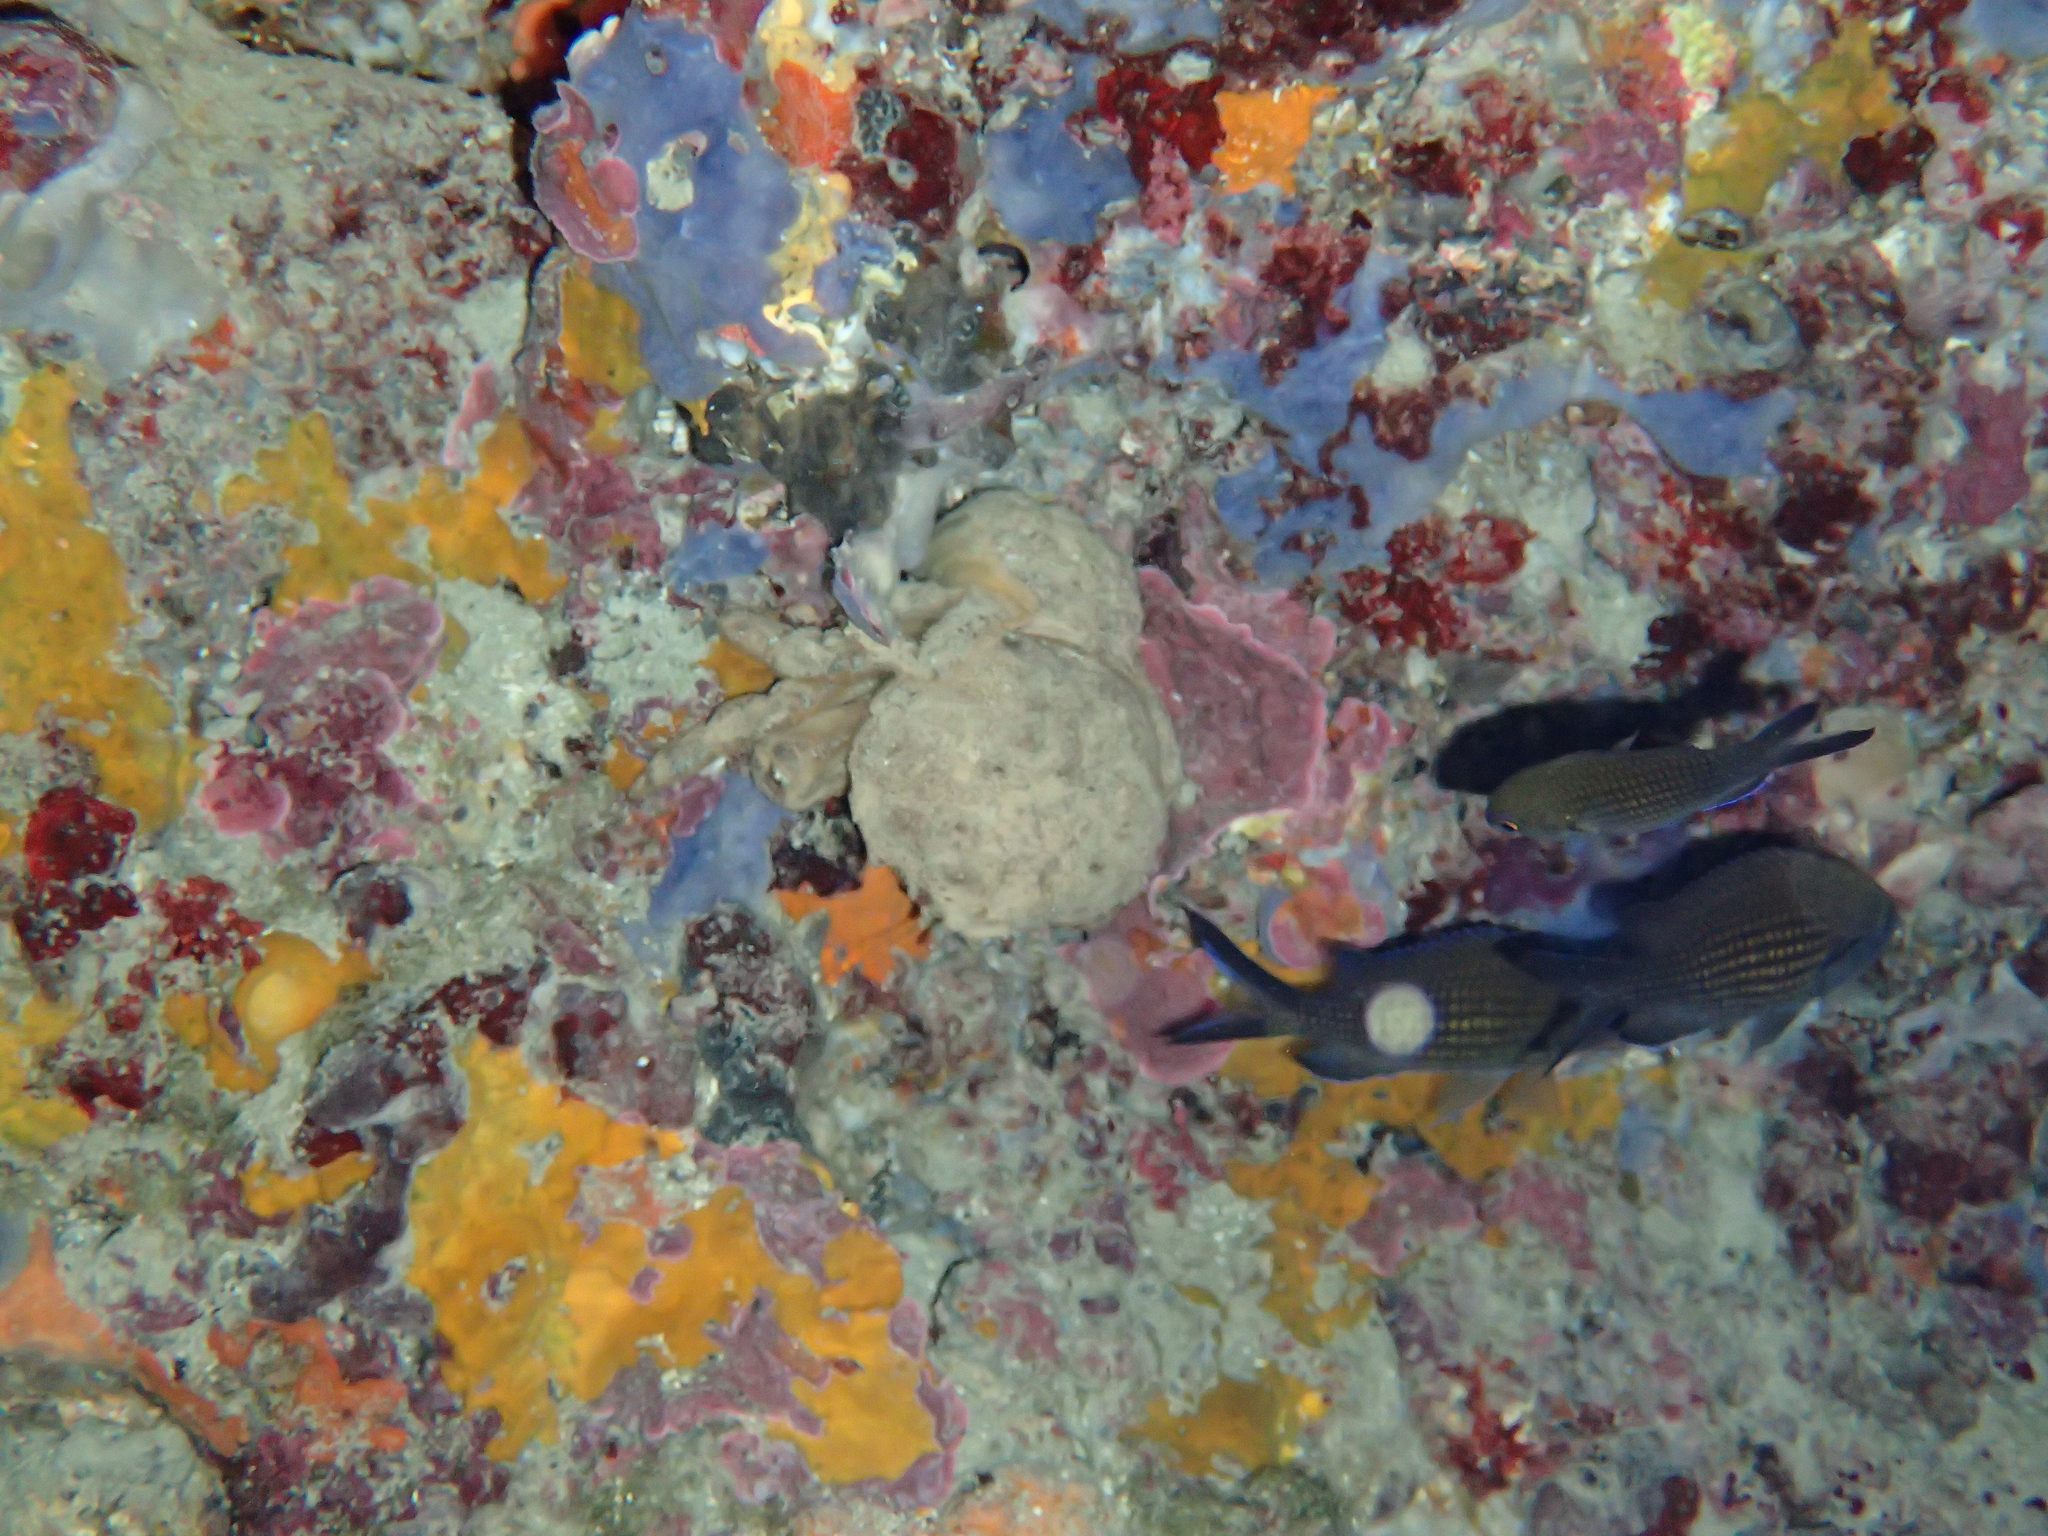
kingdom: Animalia
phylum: Arthropoda
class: Malacostraca
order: Decapoda
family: Dromiidae
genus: Dromia
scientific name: Dromia personata
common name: Sleepy crab
